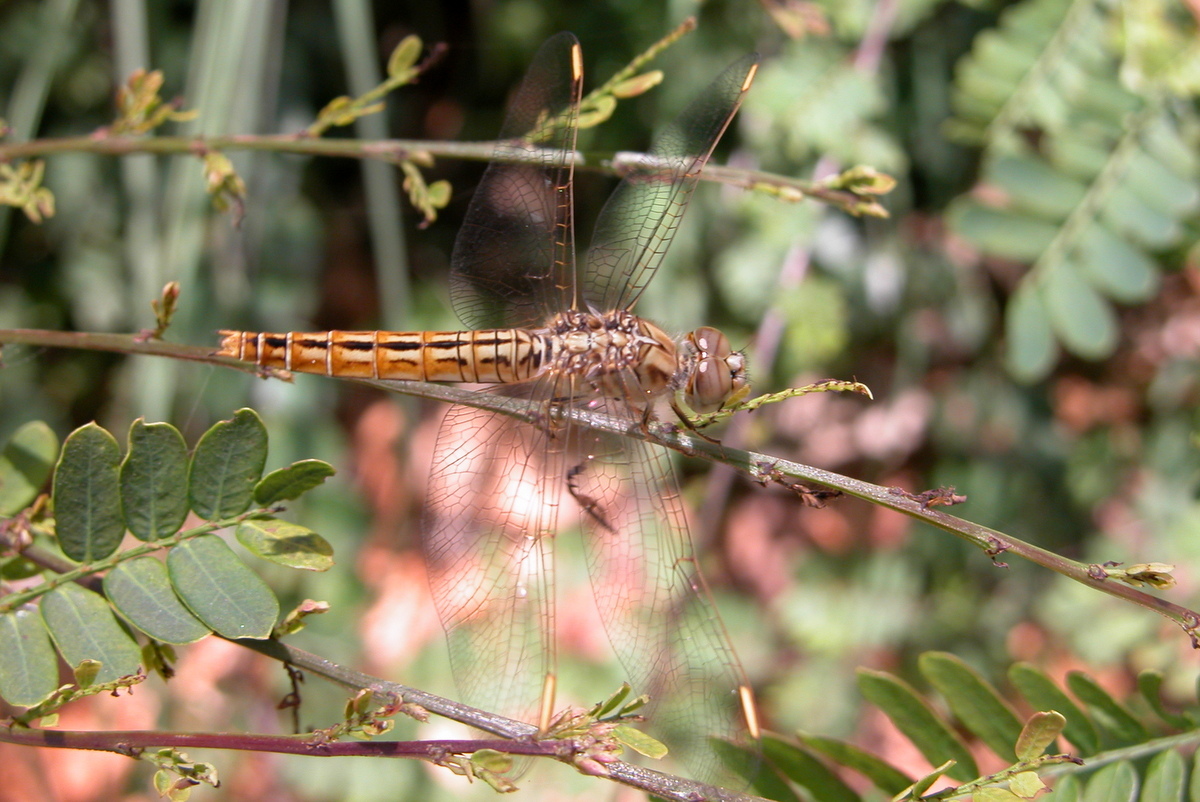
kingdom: Animalia
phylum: Arthropoda
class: Insecta
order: Odonata
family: Libellulidae
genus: Brachythemis
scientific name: Brachythemis contaminata
